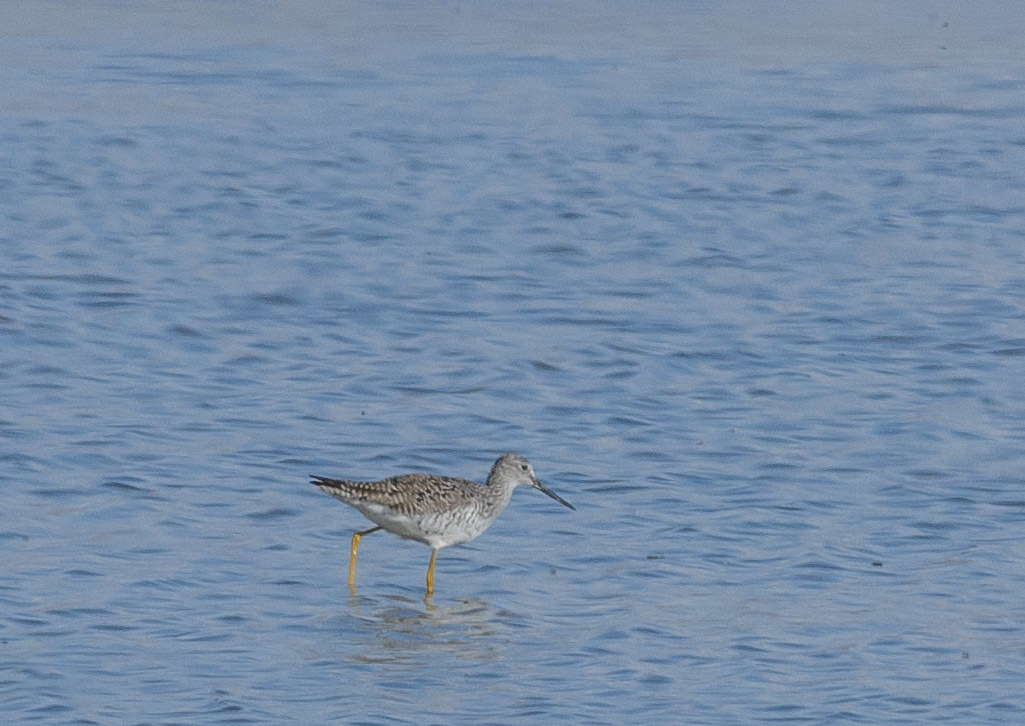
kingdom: Animalia
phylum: Chordata
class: Aves
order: Charadriiformes
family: Scolopacidae
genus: Tringa
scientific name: Tringa melanoleuca
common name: Greater yellowlegs
